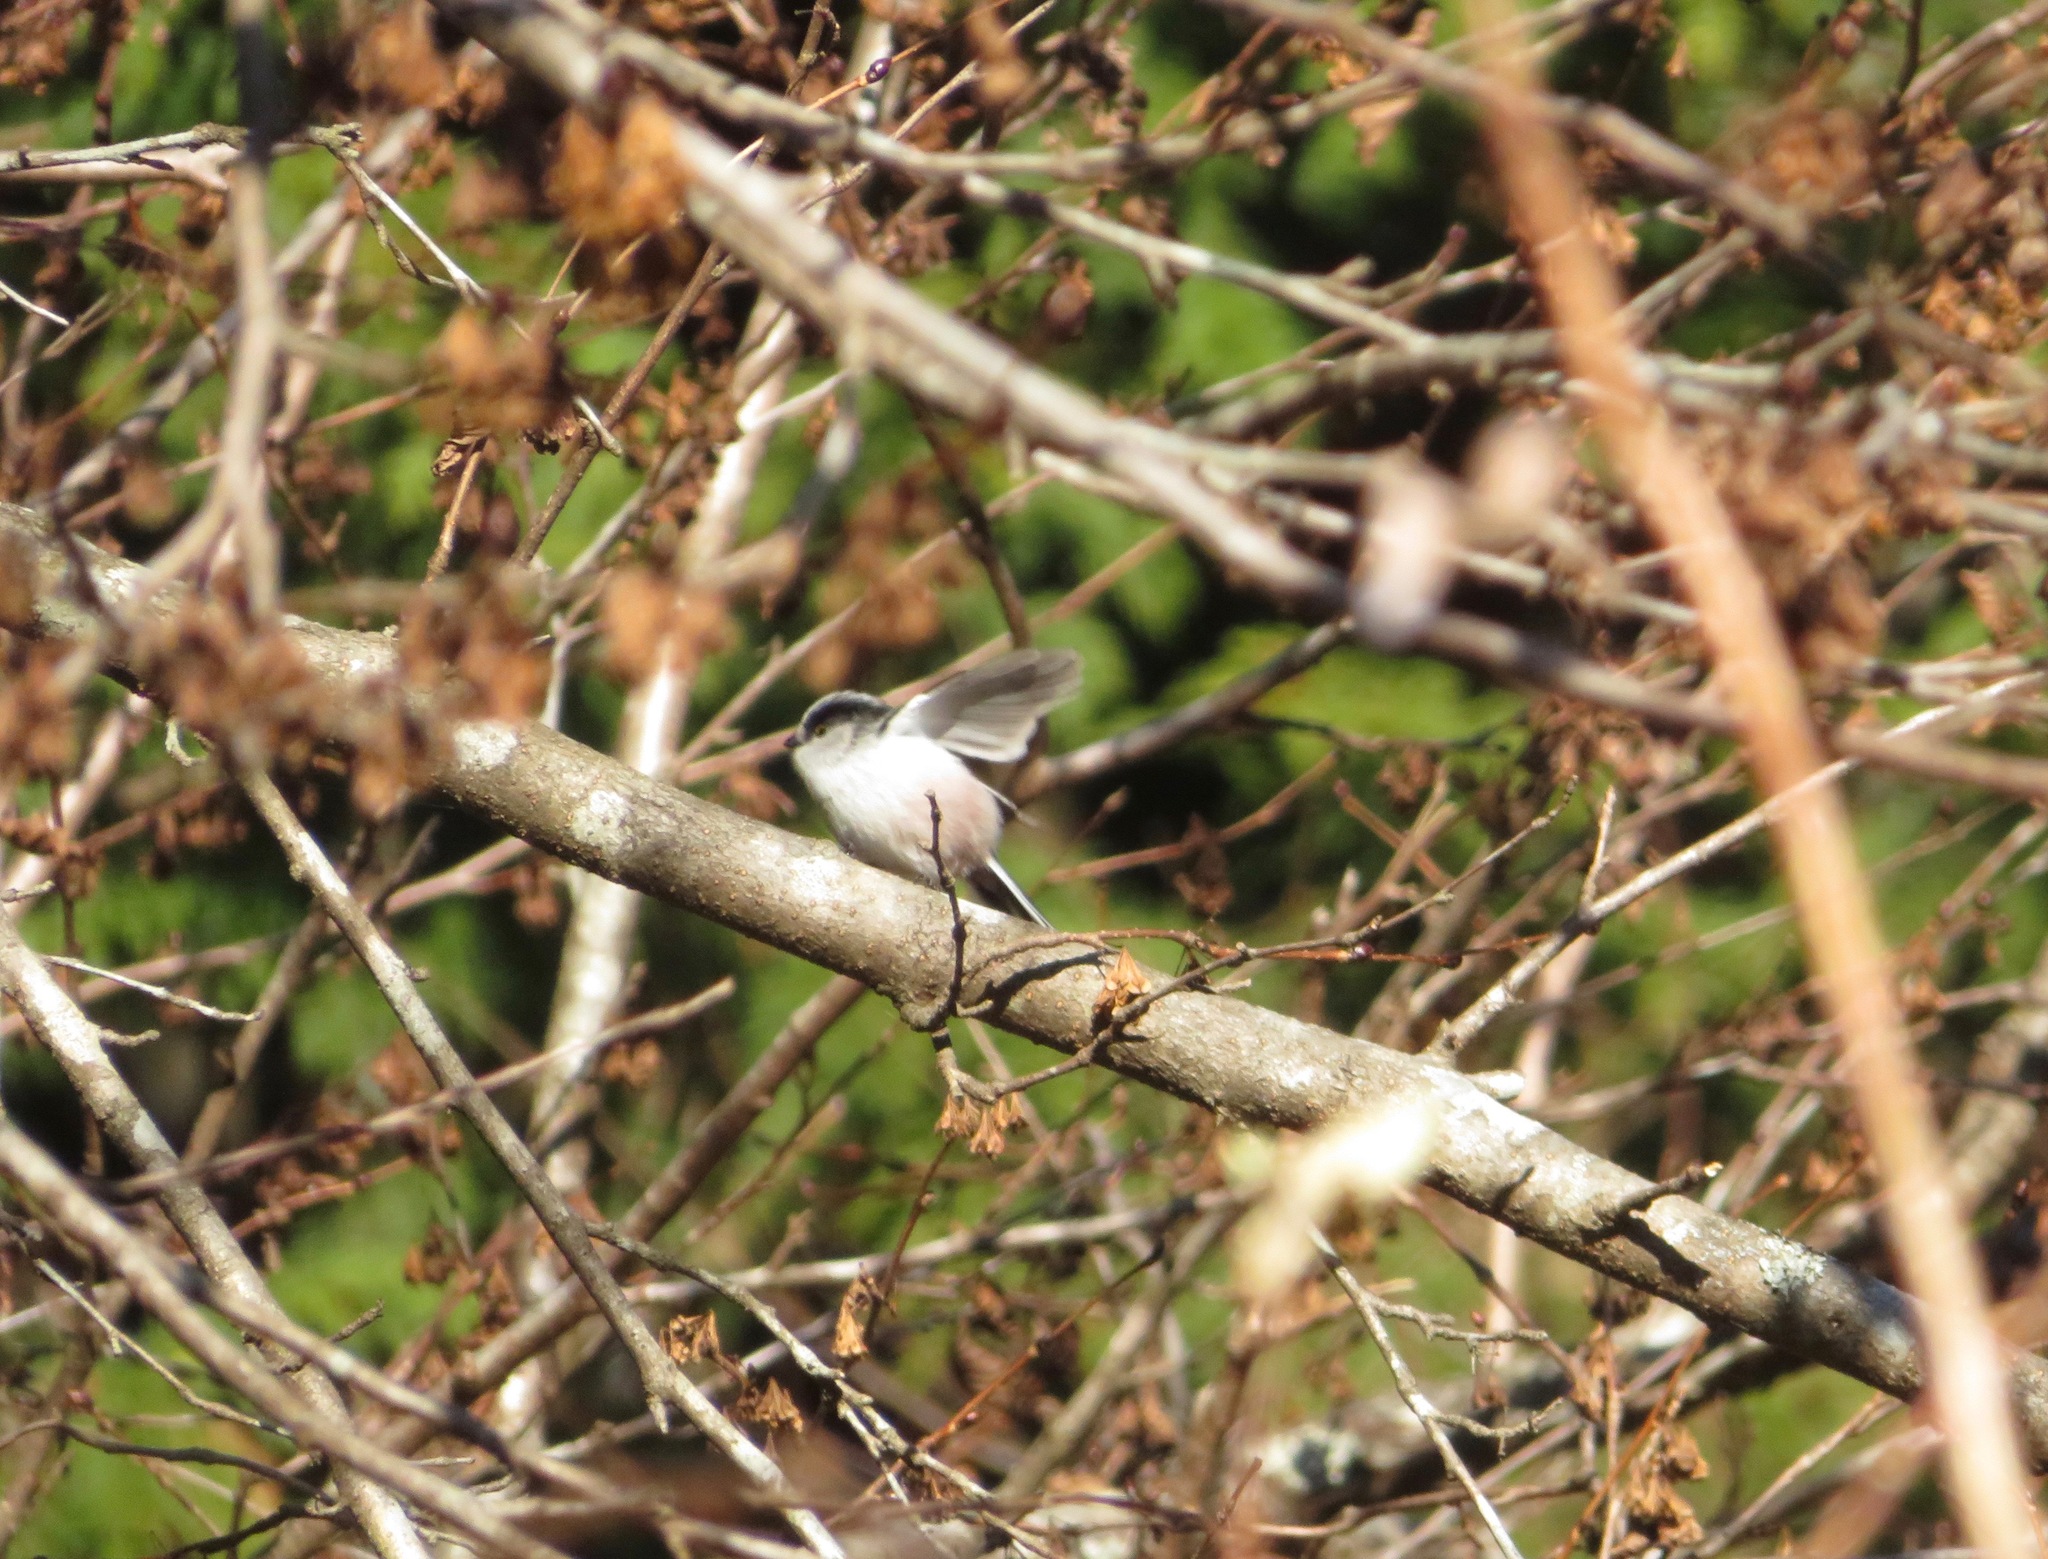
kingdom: Animalia
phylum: Chordata
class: Aves
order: Passeriformes
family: Aegithalidae
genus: Aegithalos
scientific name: Aegithalos caudatus
